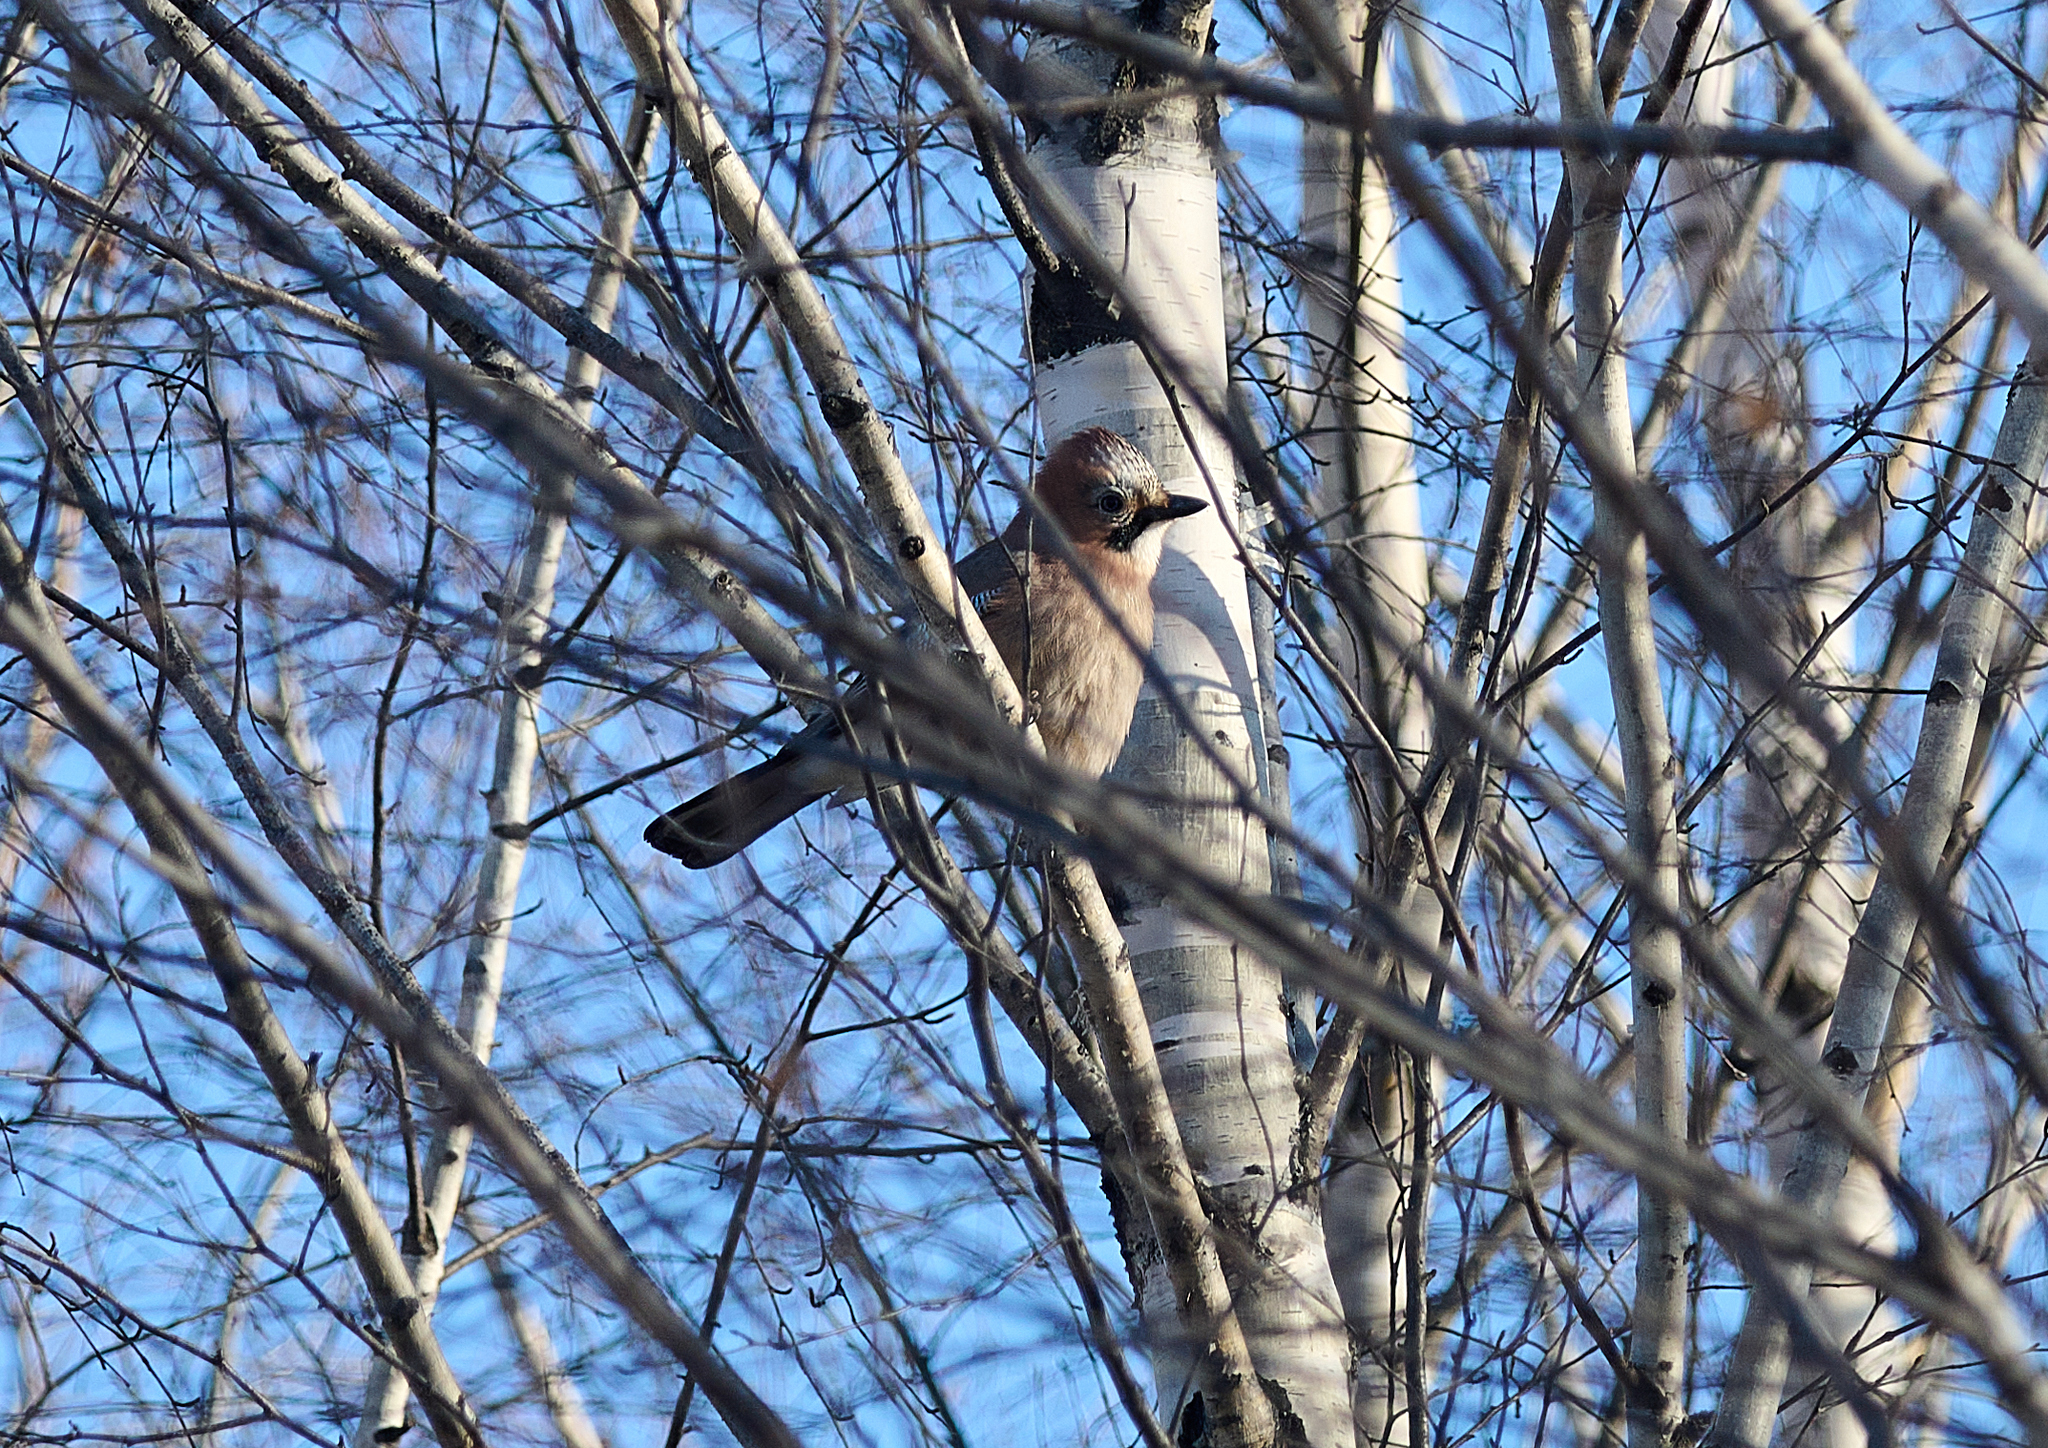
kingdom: Animalia
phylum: Chordata
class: Aves
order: Passeriformes
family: Corvidae
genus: Garrulus
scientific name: Garrulus glandarius
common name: Eurasian jay
